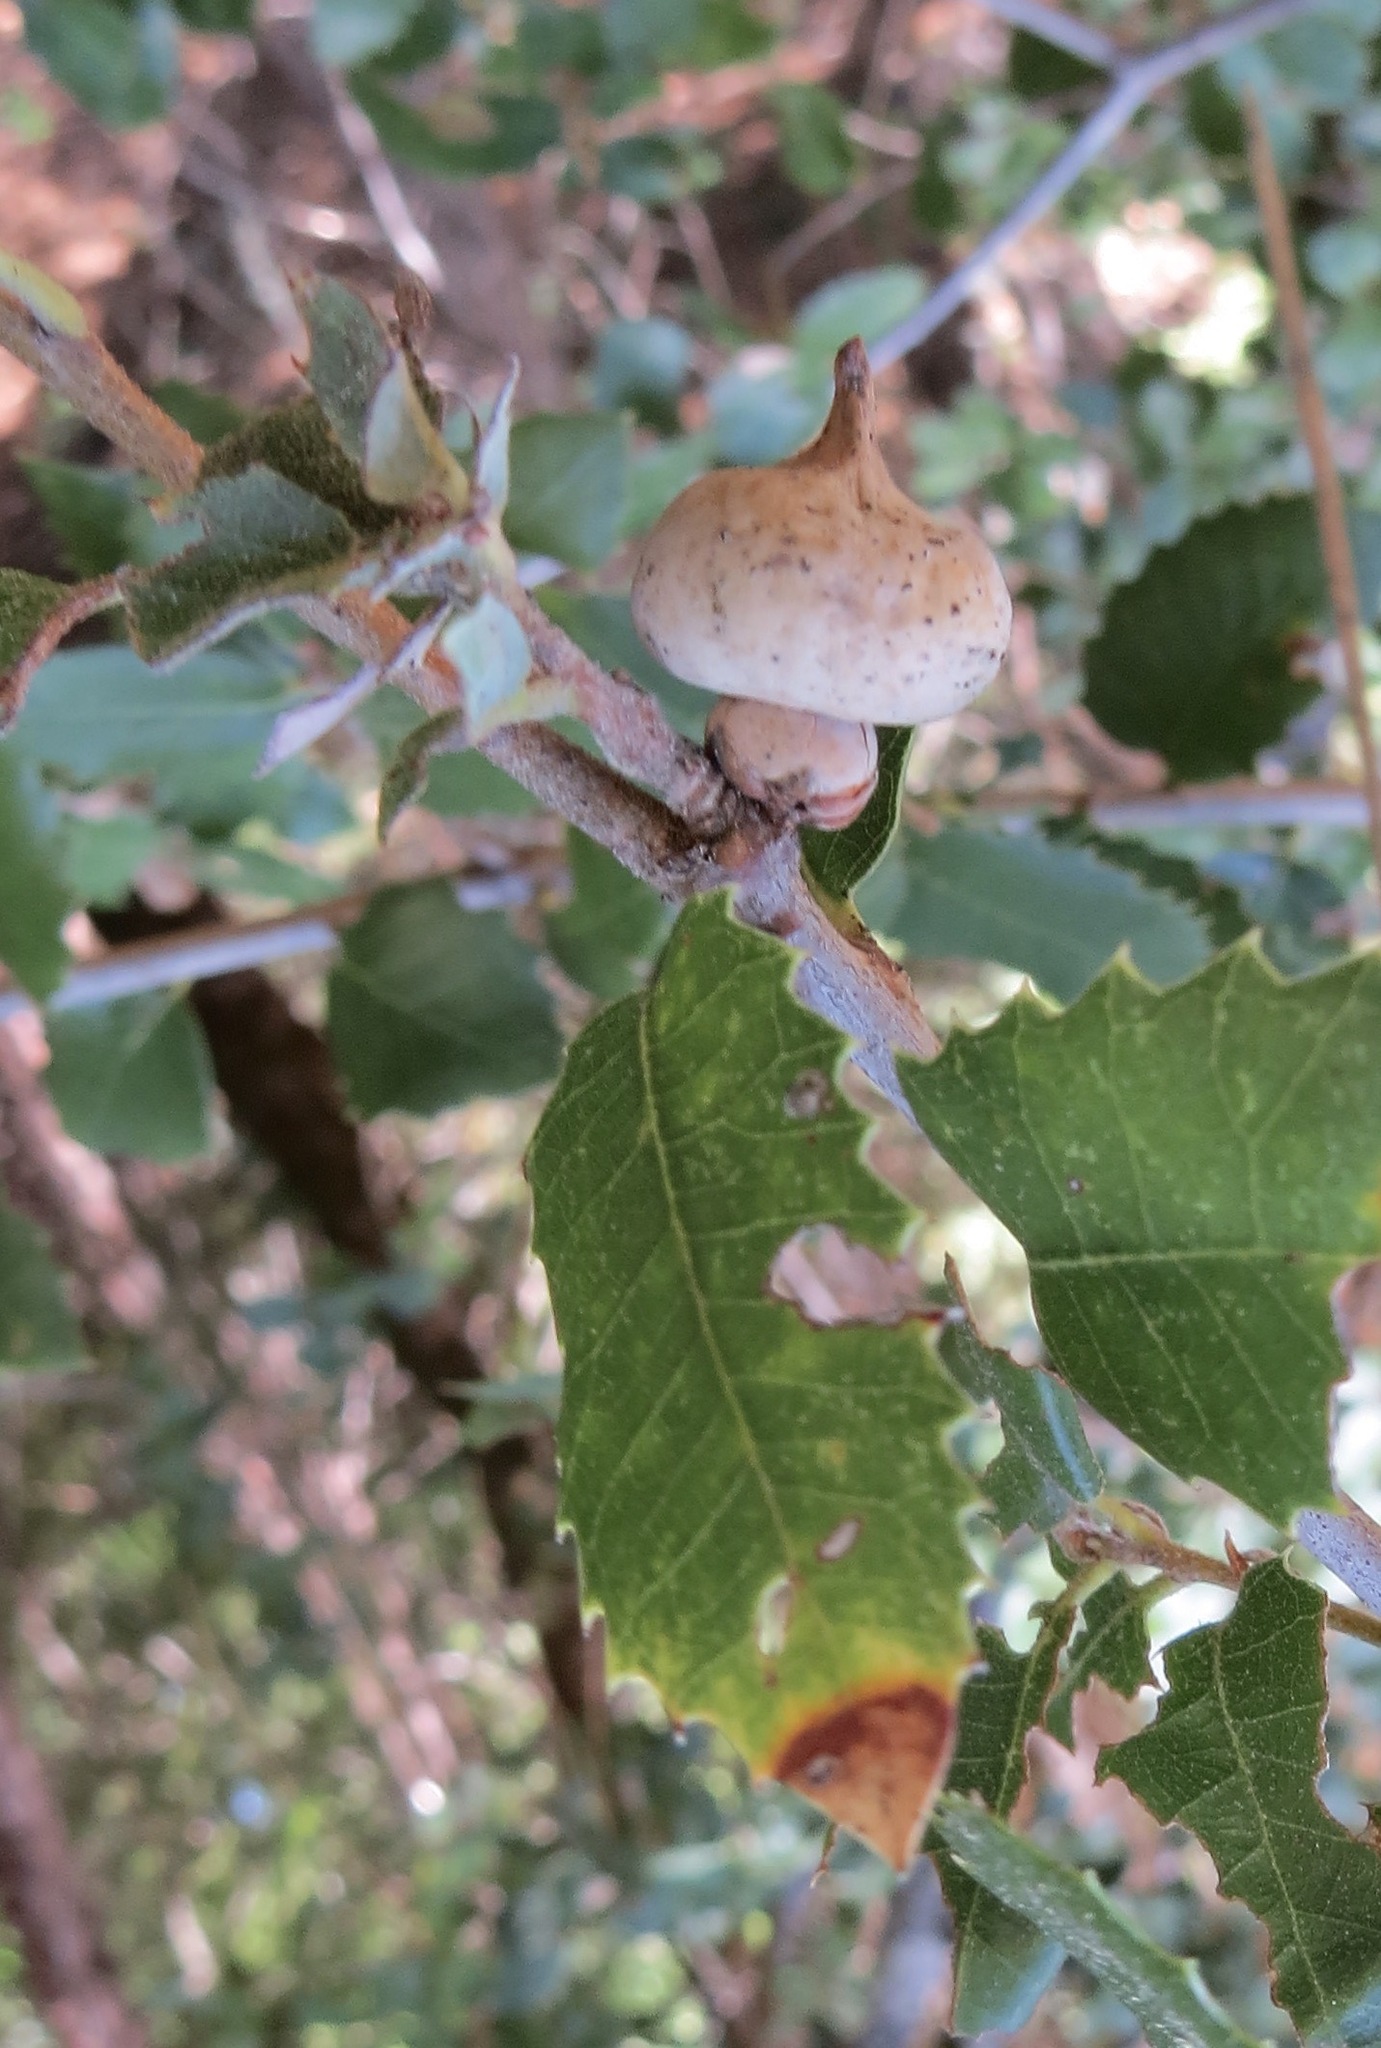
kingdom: Animalia
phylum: Arthropoda
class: Insecta
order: Hymenoptera
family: Cynipidae
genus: Heteroecus
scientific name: Heteroecus
